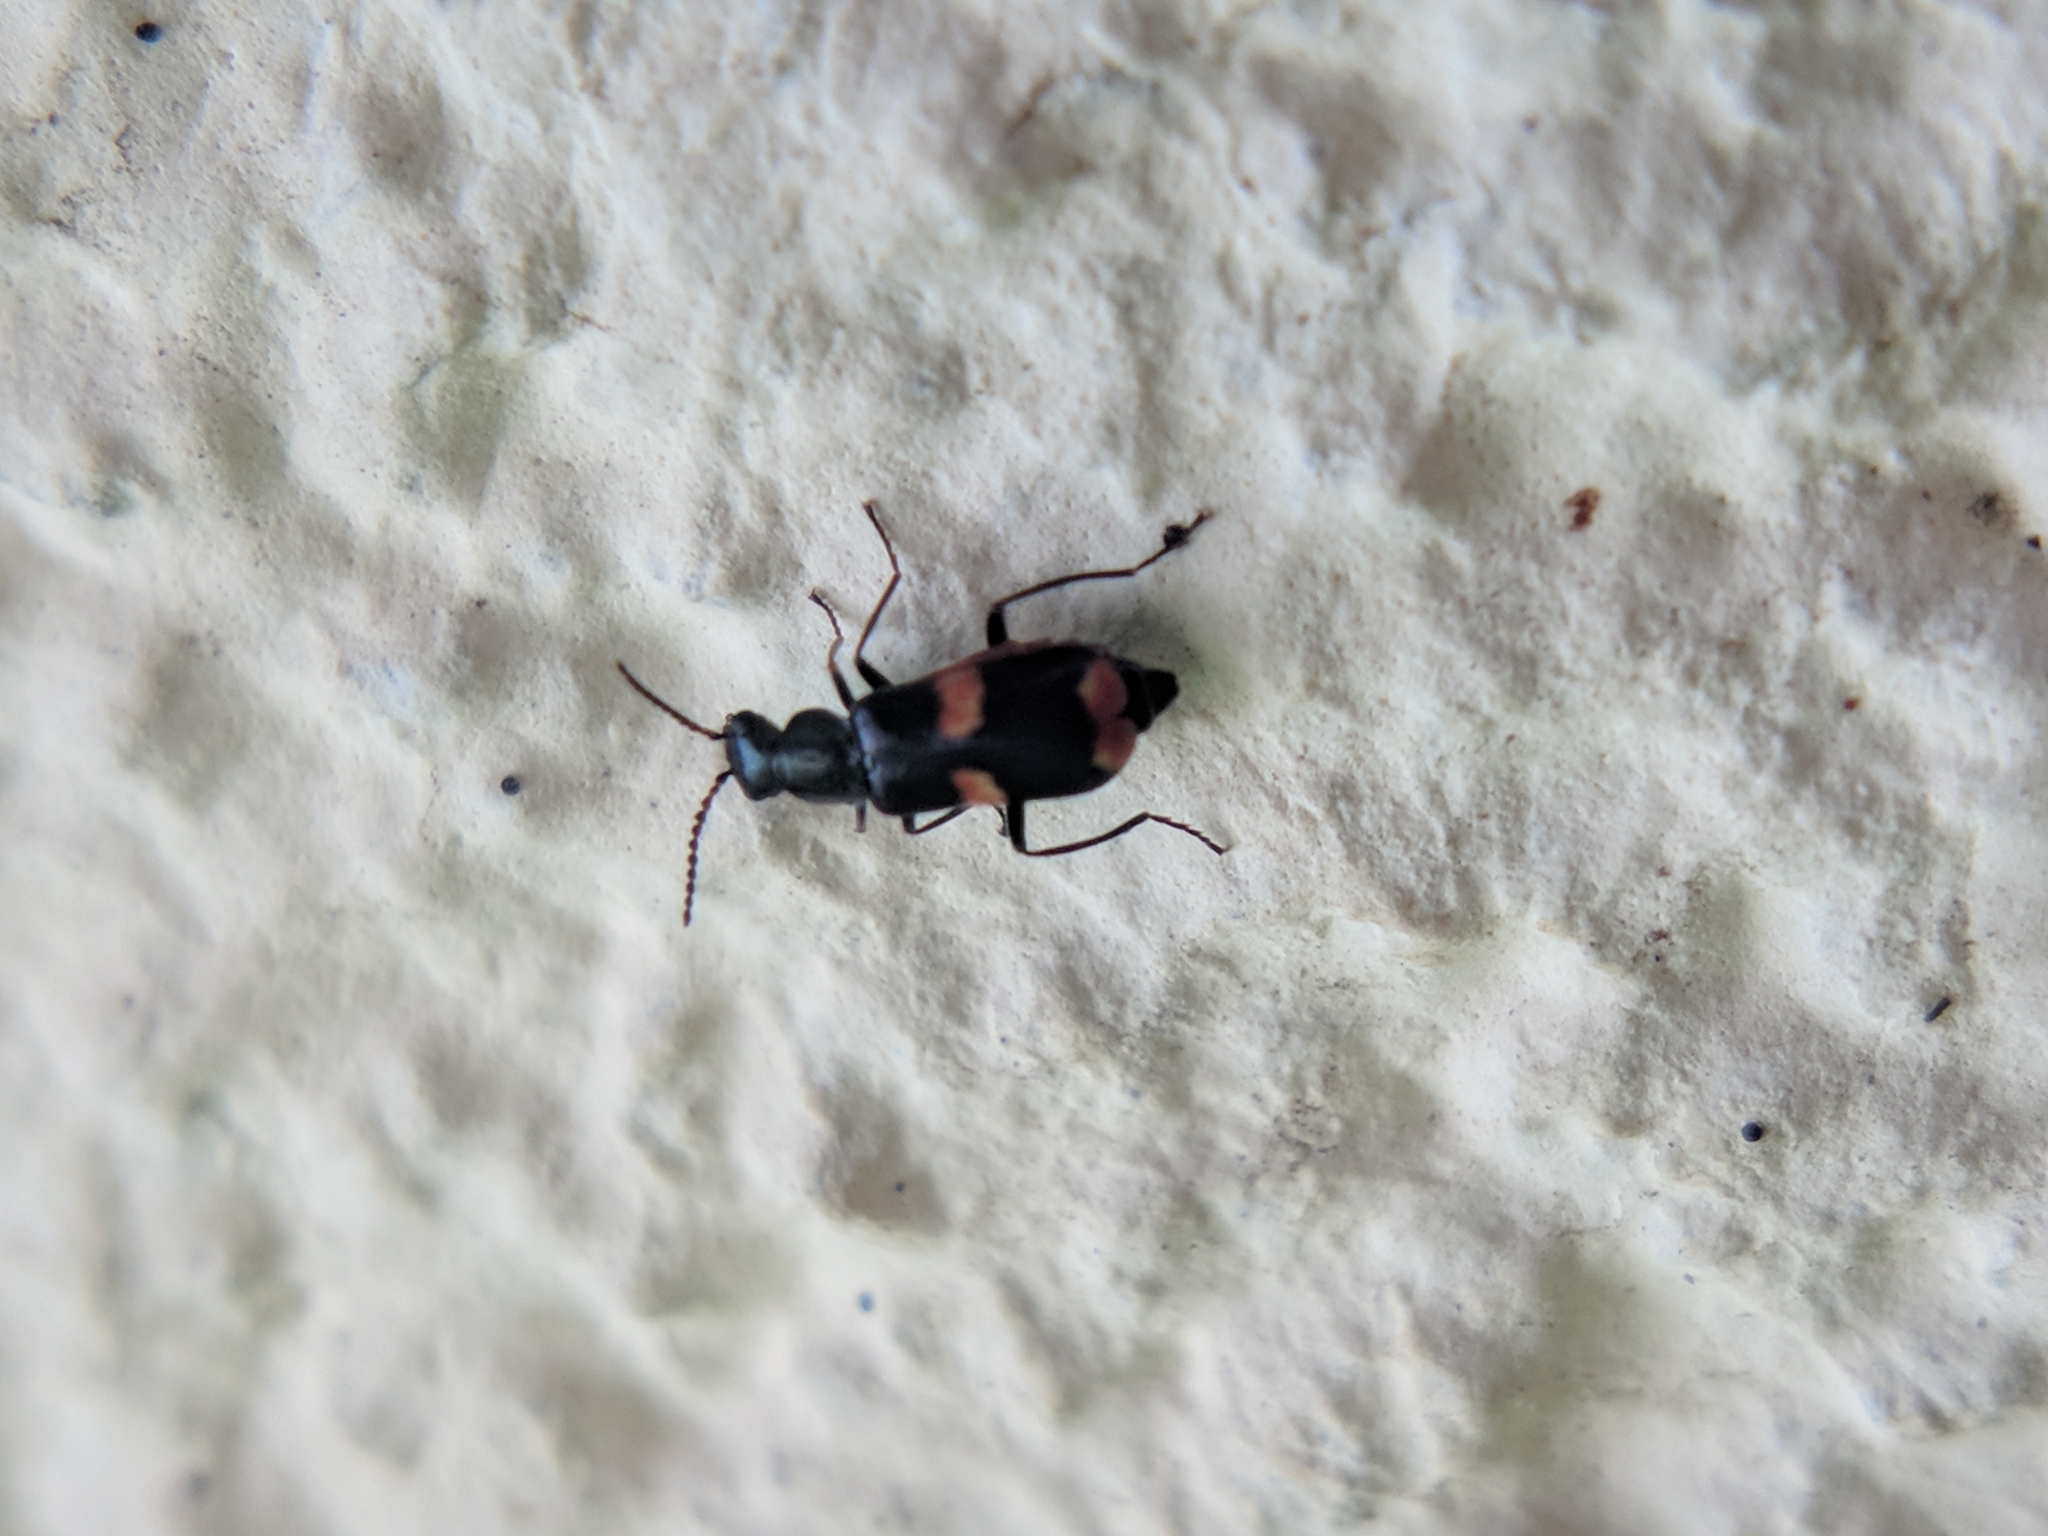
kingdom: Animalia
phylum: Arthropoda
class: Insecta
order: Coleoptera
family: Melyridae
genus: Anthocomus
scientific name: Anthocomus fasciatus
